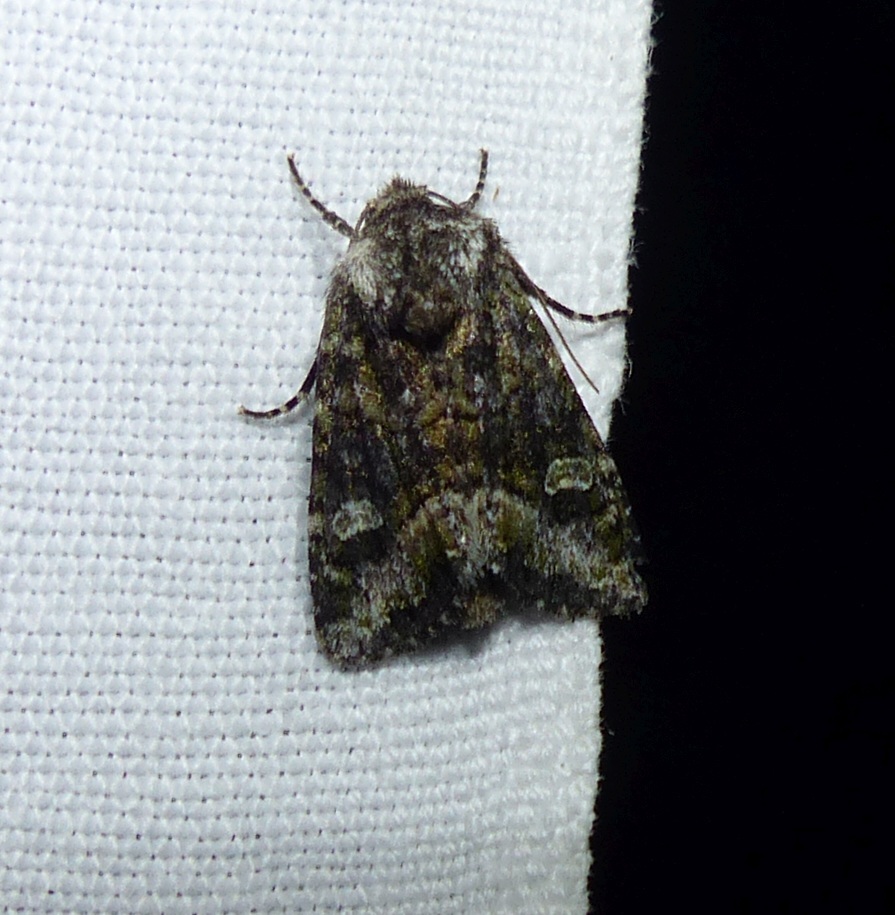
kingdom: Animalia
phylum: Arthropoda
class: Insecta
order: Lepidoptera
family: Noctuidae
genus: Lacinipolia
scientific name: Lacinipolia olivacea
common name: Olive arches moth
